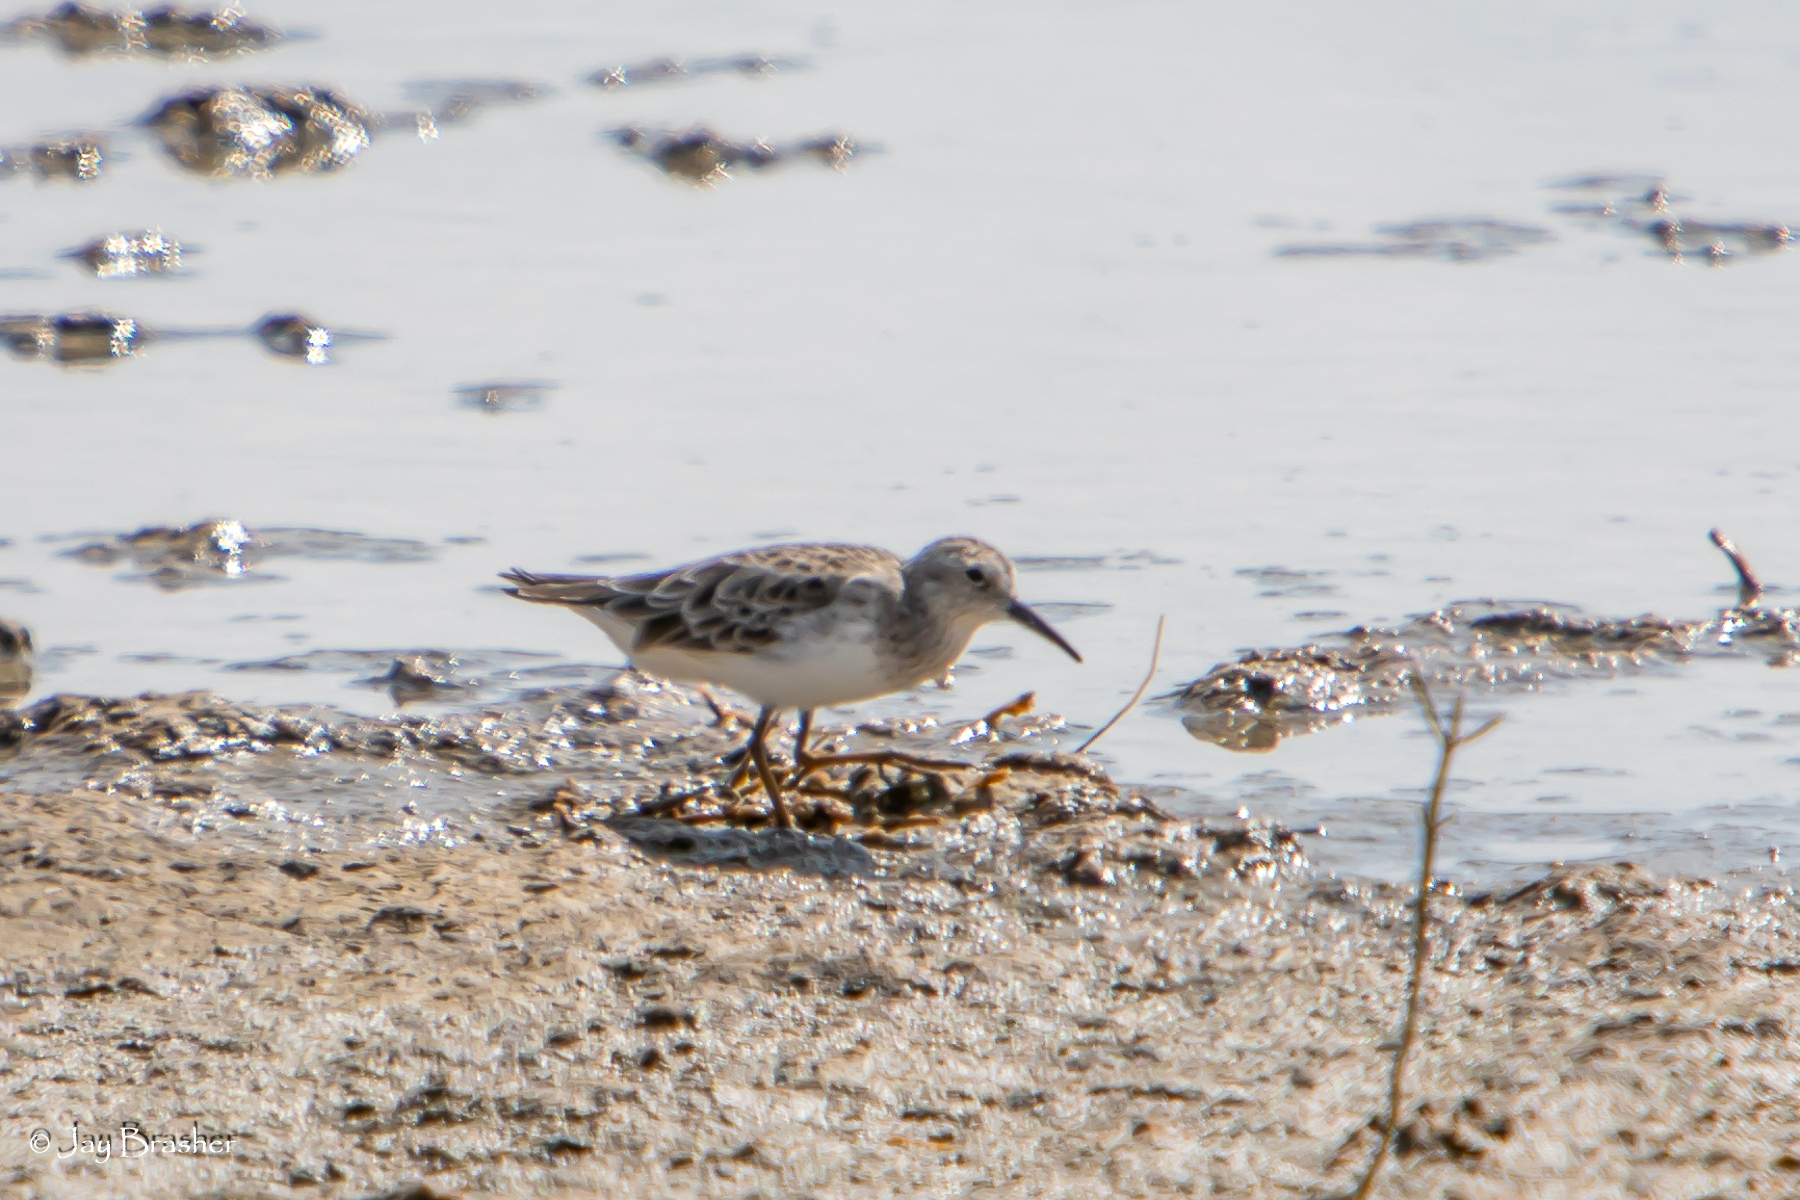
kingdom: Animalia
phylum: Chordata
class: Aves
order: Charadriiformes
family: Scolopacidae
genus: Calidris
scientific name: Calidris minutilla
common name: Least sandpiper
